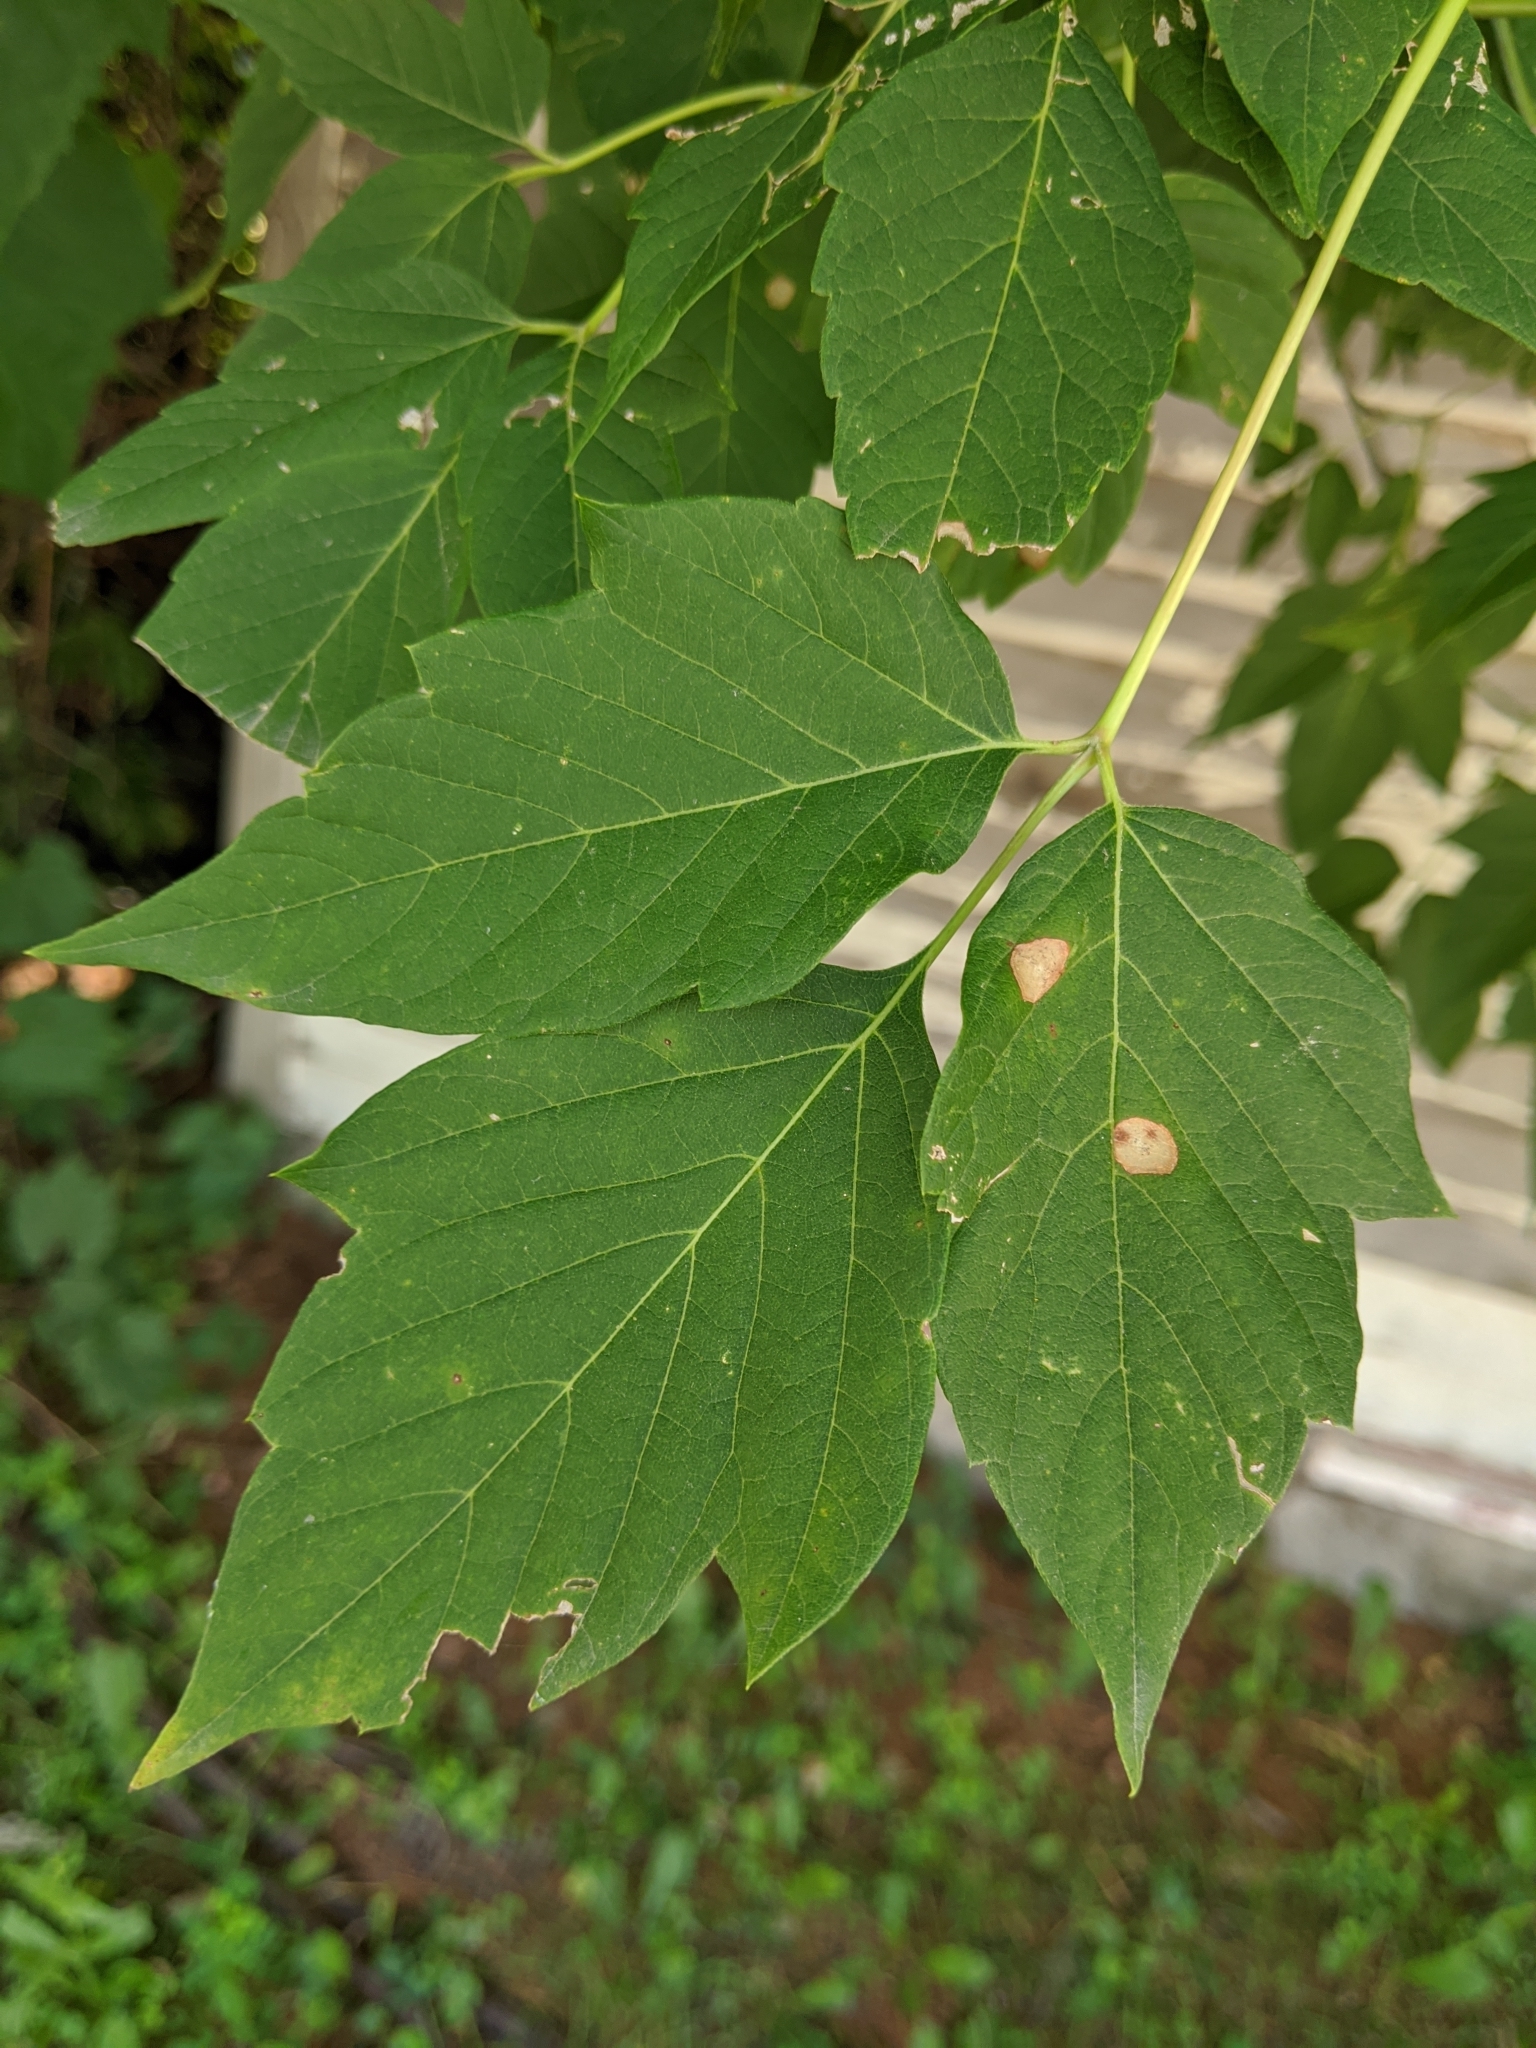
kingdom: Plantae
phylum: Tracheophyta
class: Magnoliopsida
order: Sapindales
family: Sapindaceae
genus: Acer
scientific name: Acer negundo
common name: Ashleaf maple
